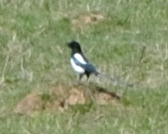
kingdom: Animalia
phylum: Chordata
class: Aves
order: Passeriformes
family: Corvidae
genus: Pica
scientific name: Pica pica
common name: Eurasian magpie
